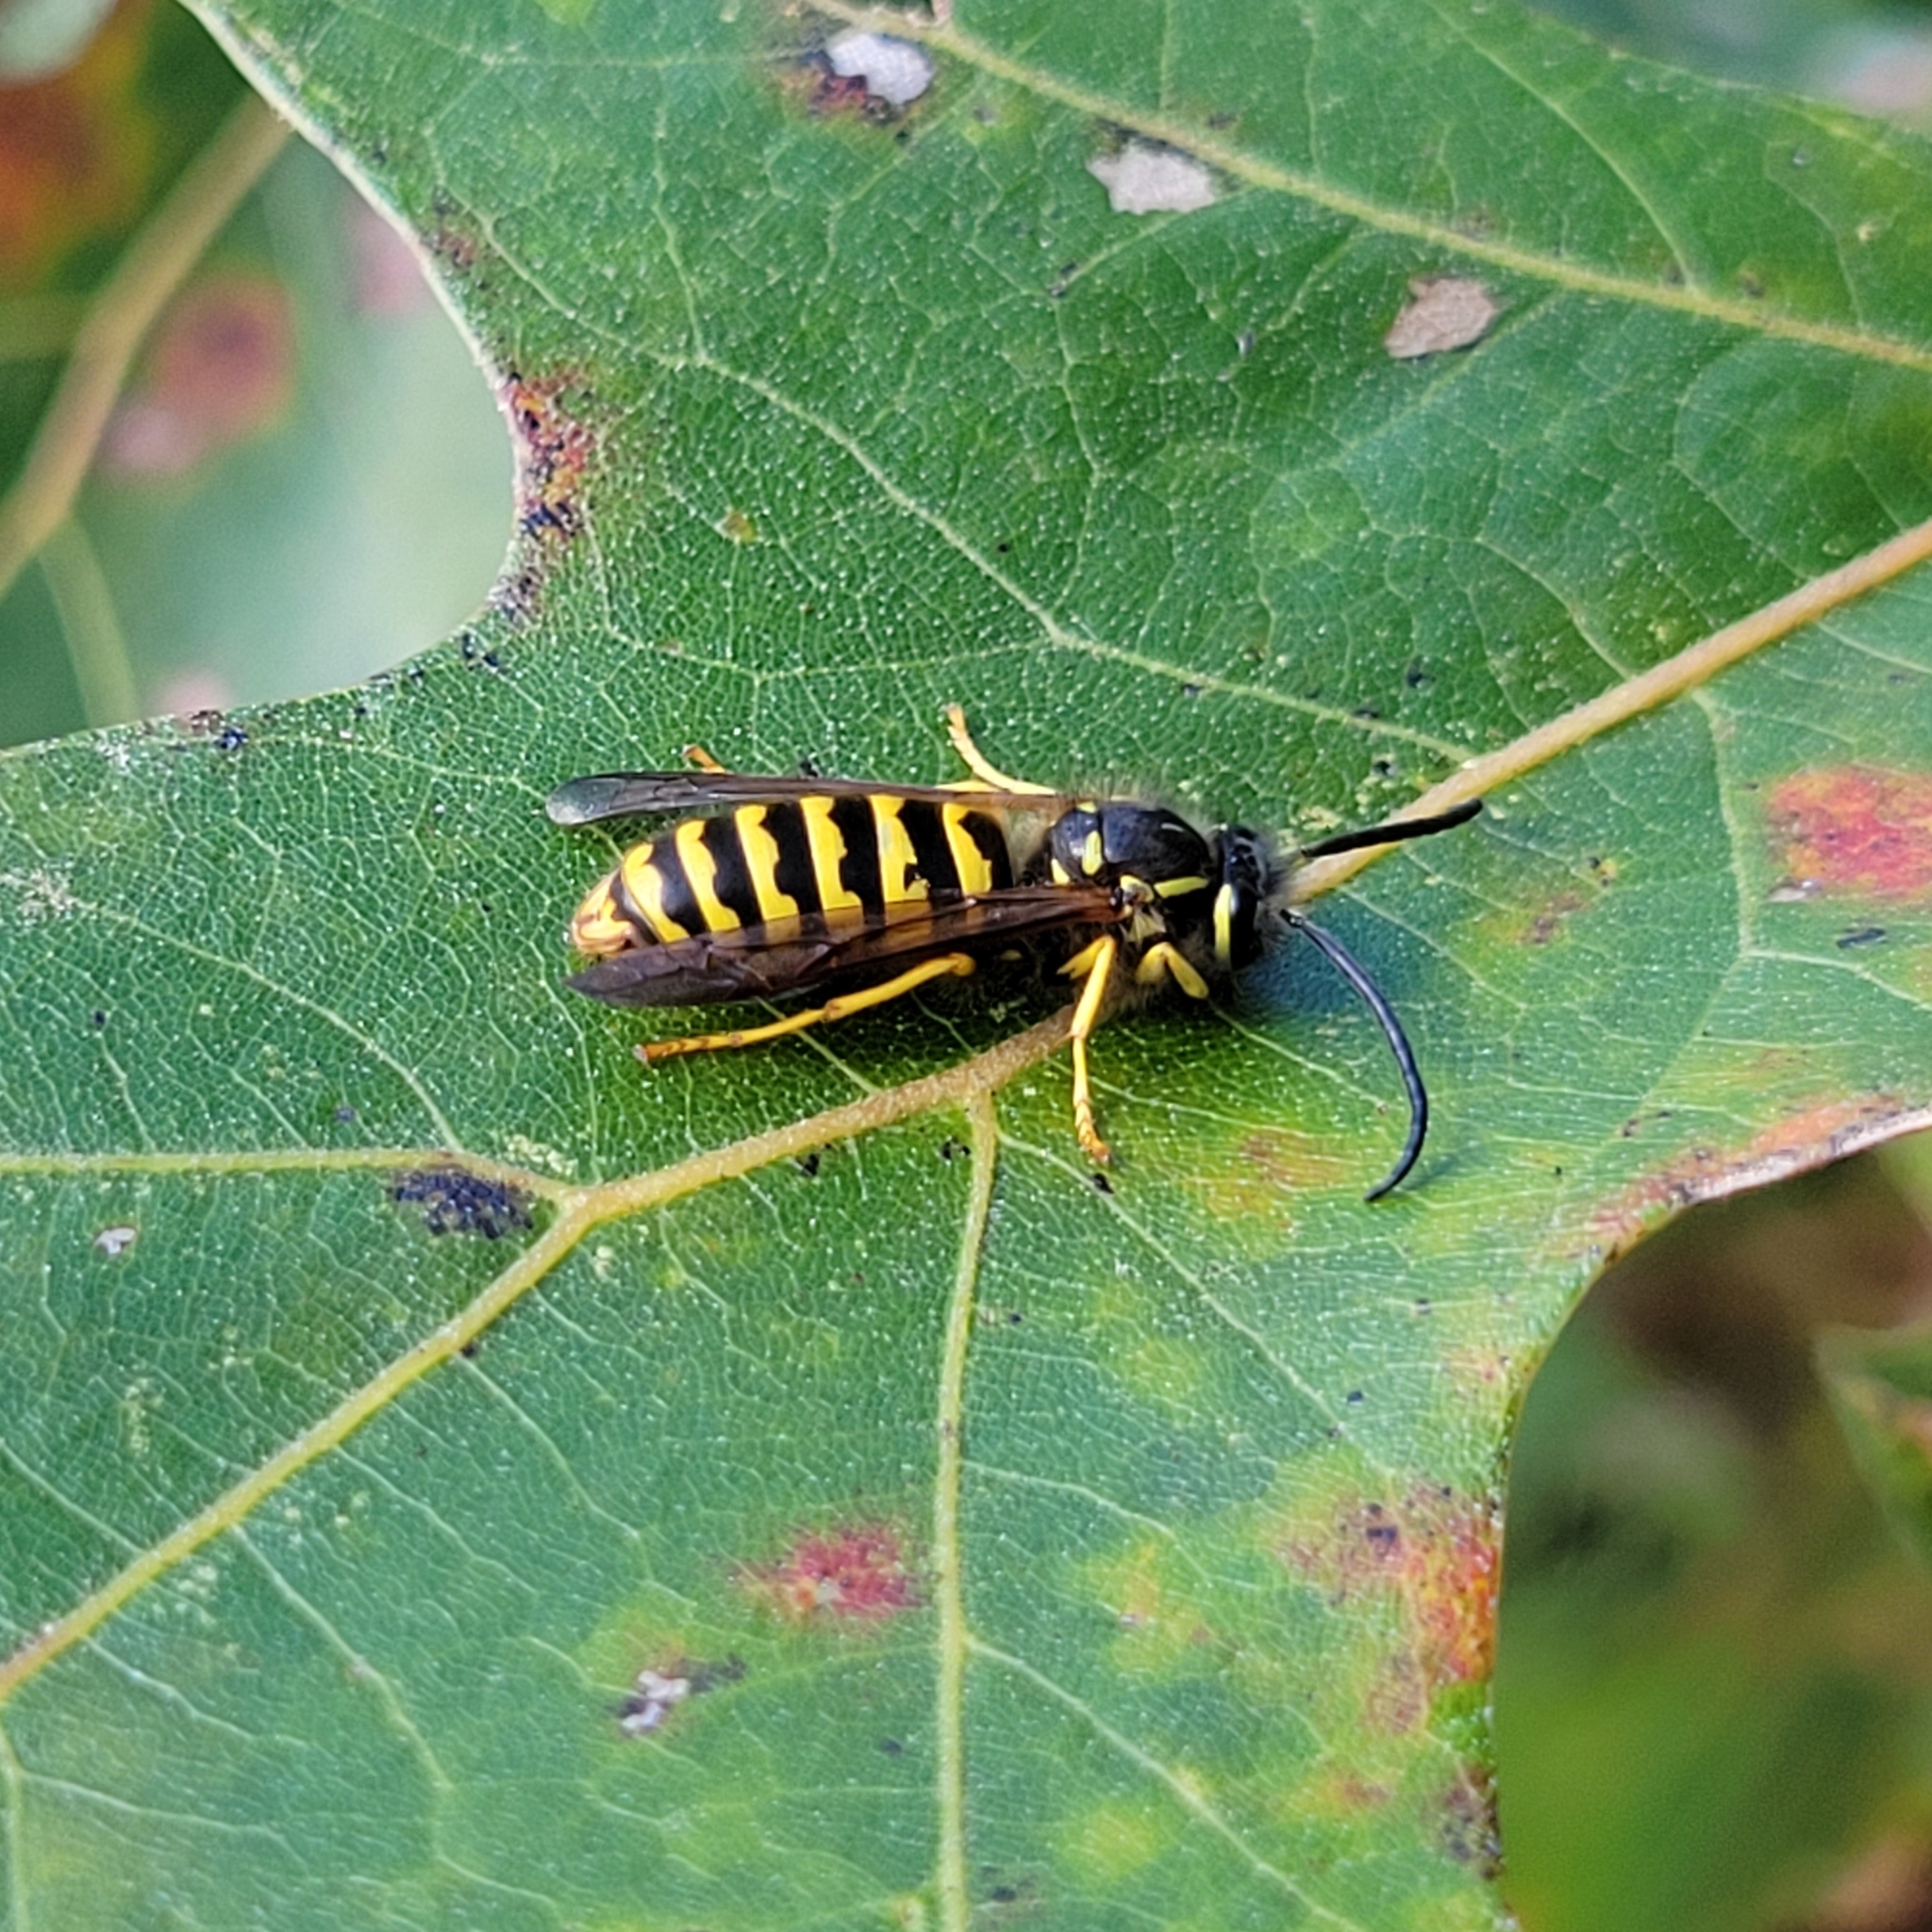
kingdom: Animalia
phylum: Arthropoda
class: Insecta
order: Hymenoptera
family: Vespidae
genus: Vespula
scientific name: Vespula flavopilosa
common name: Downy yellowjacket
